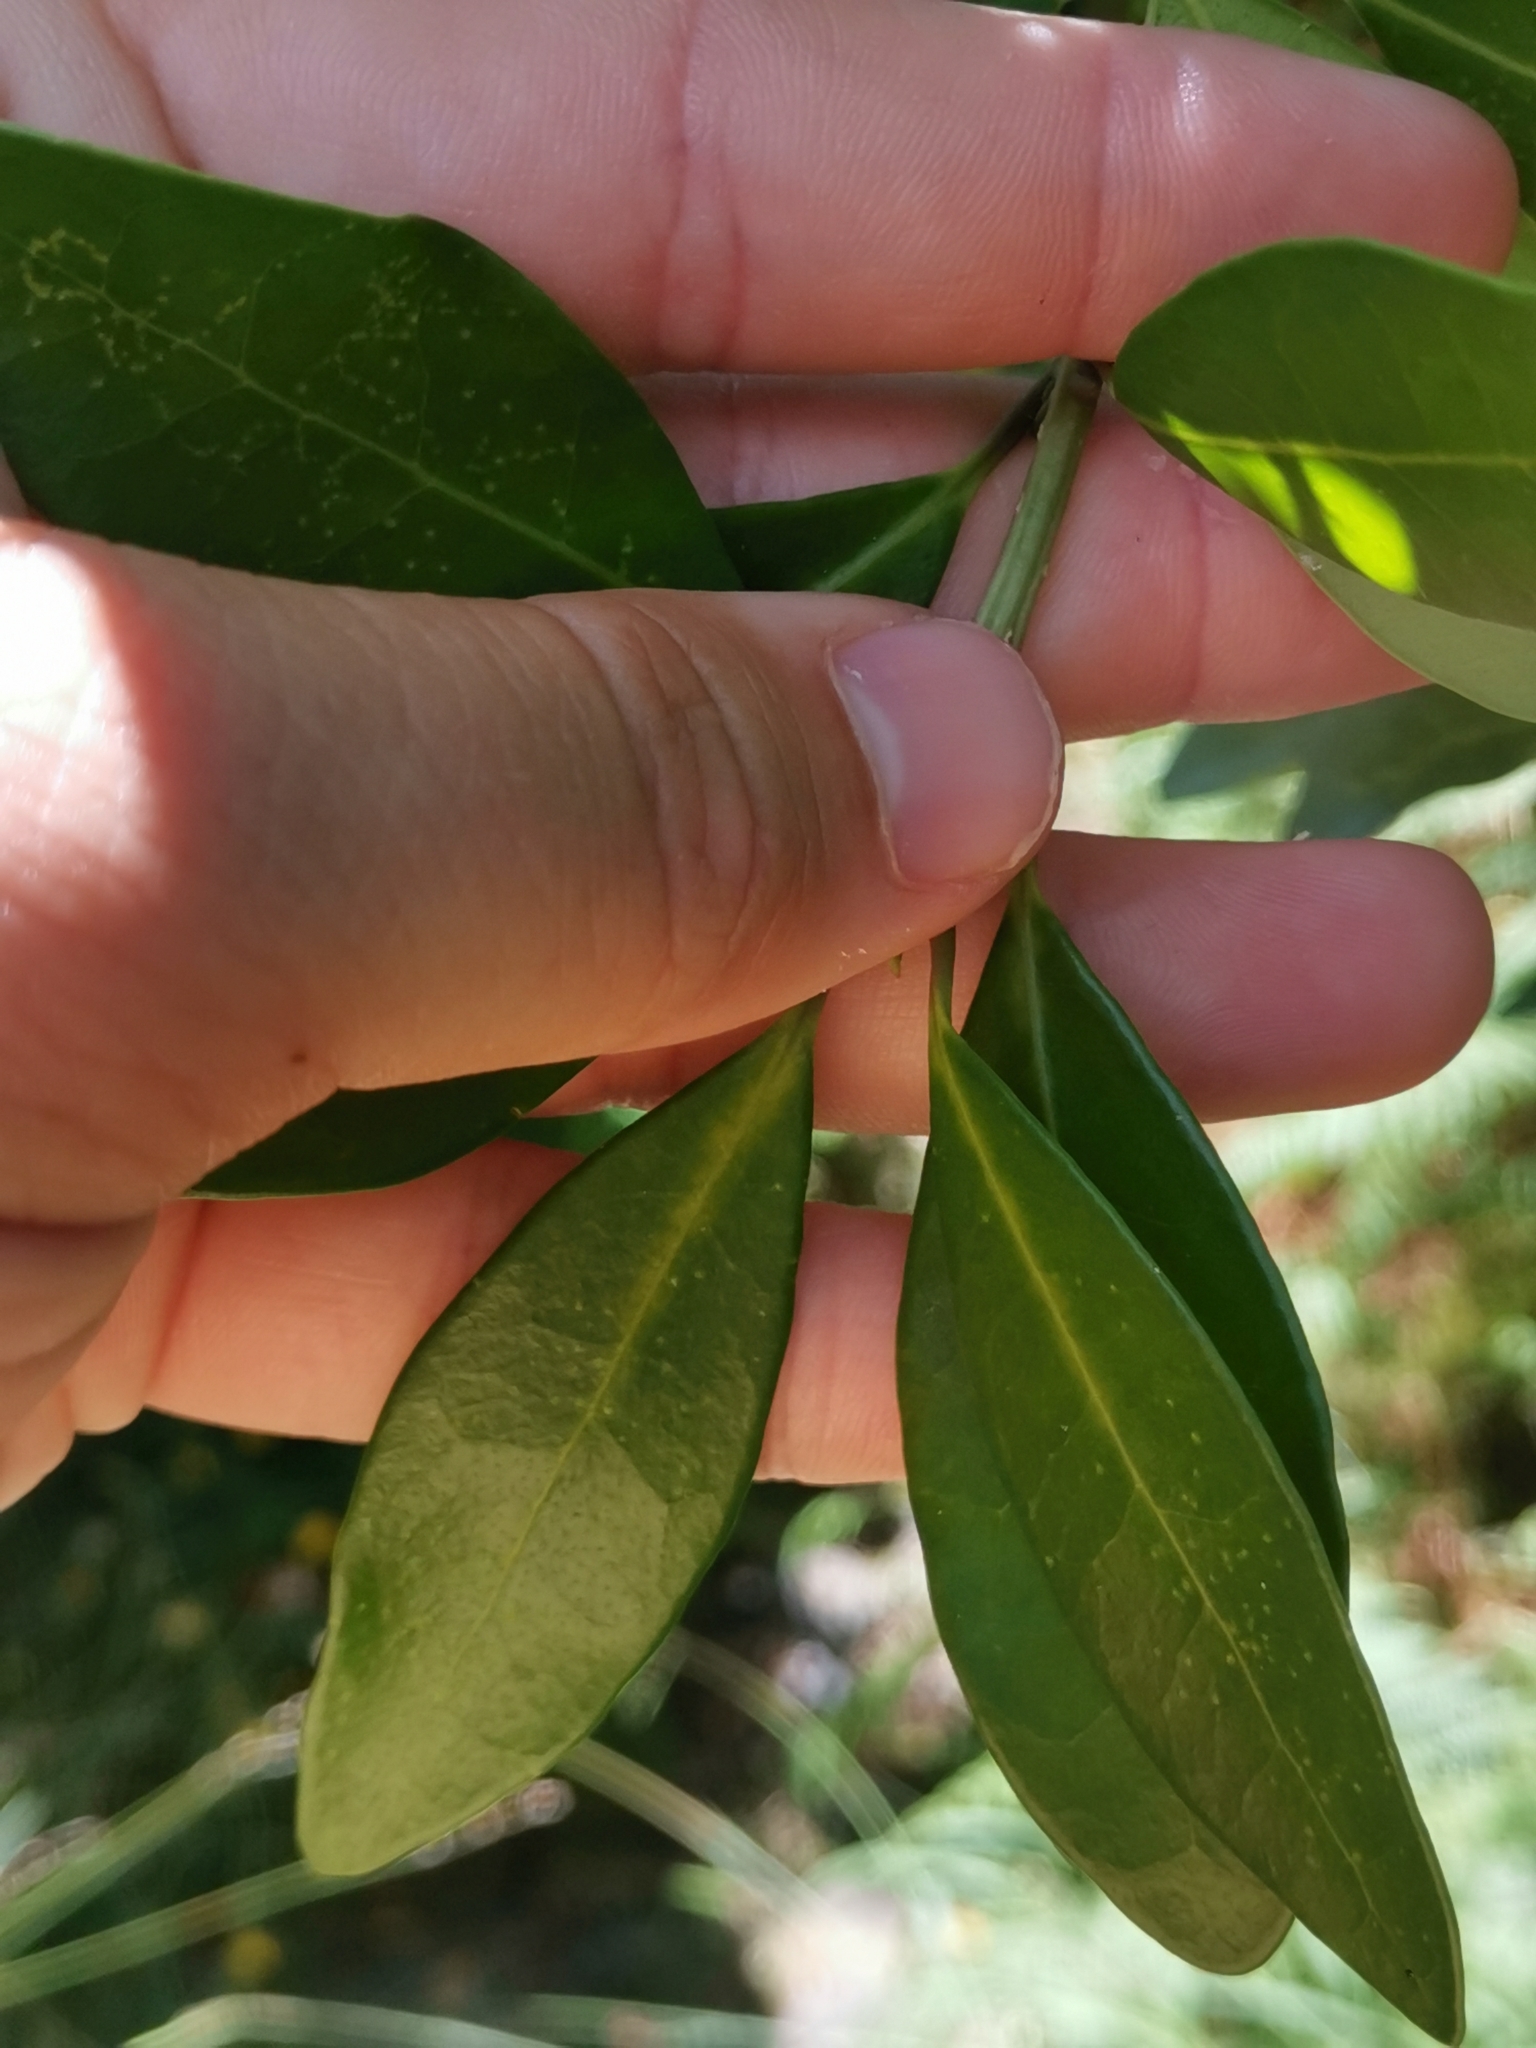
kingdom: Plantae
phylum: Tracheophyta
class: Magnoliopsida
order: Lamiales
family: Oleaceae
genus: Picconia
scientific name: Picconia azorica
